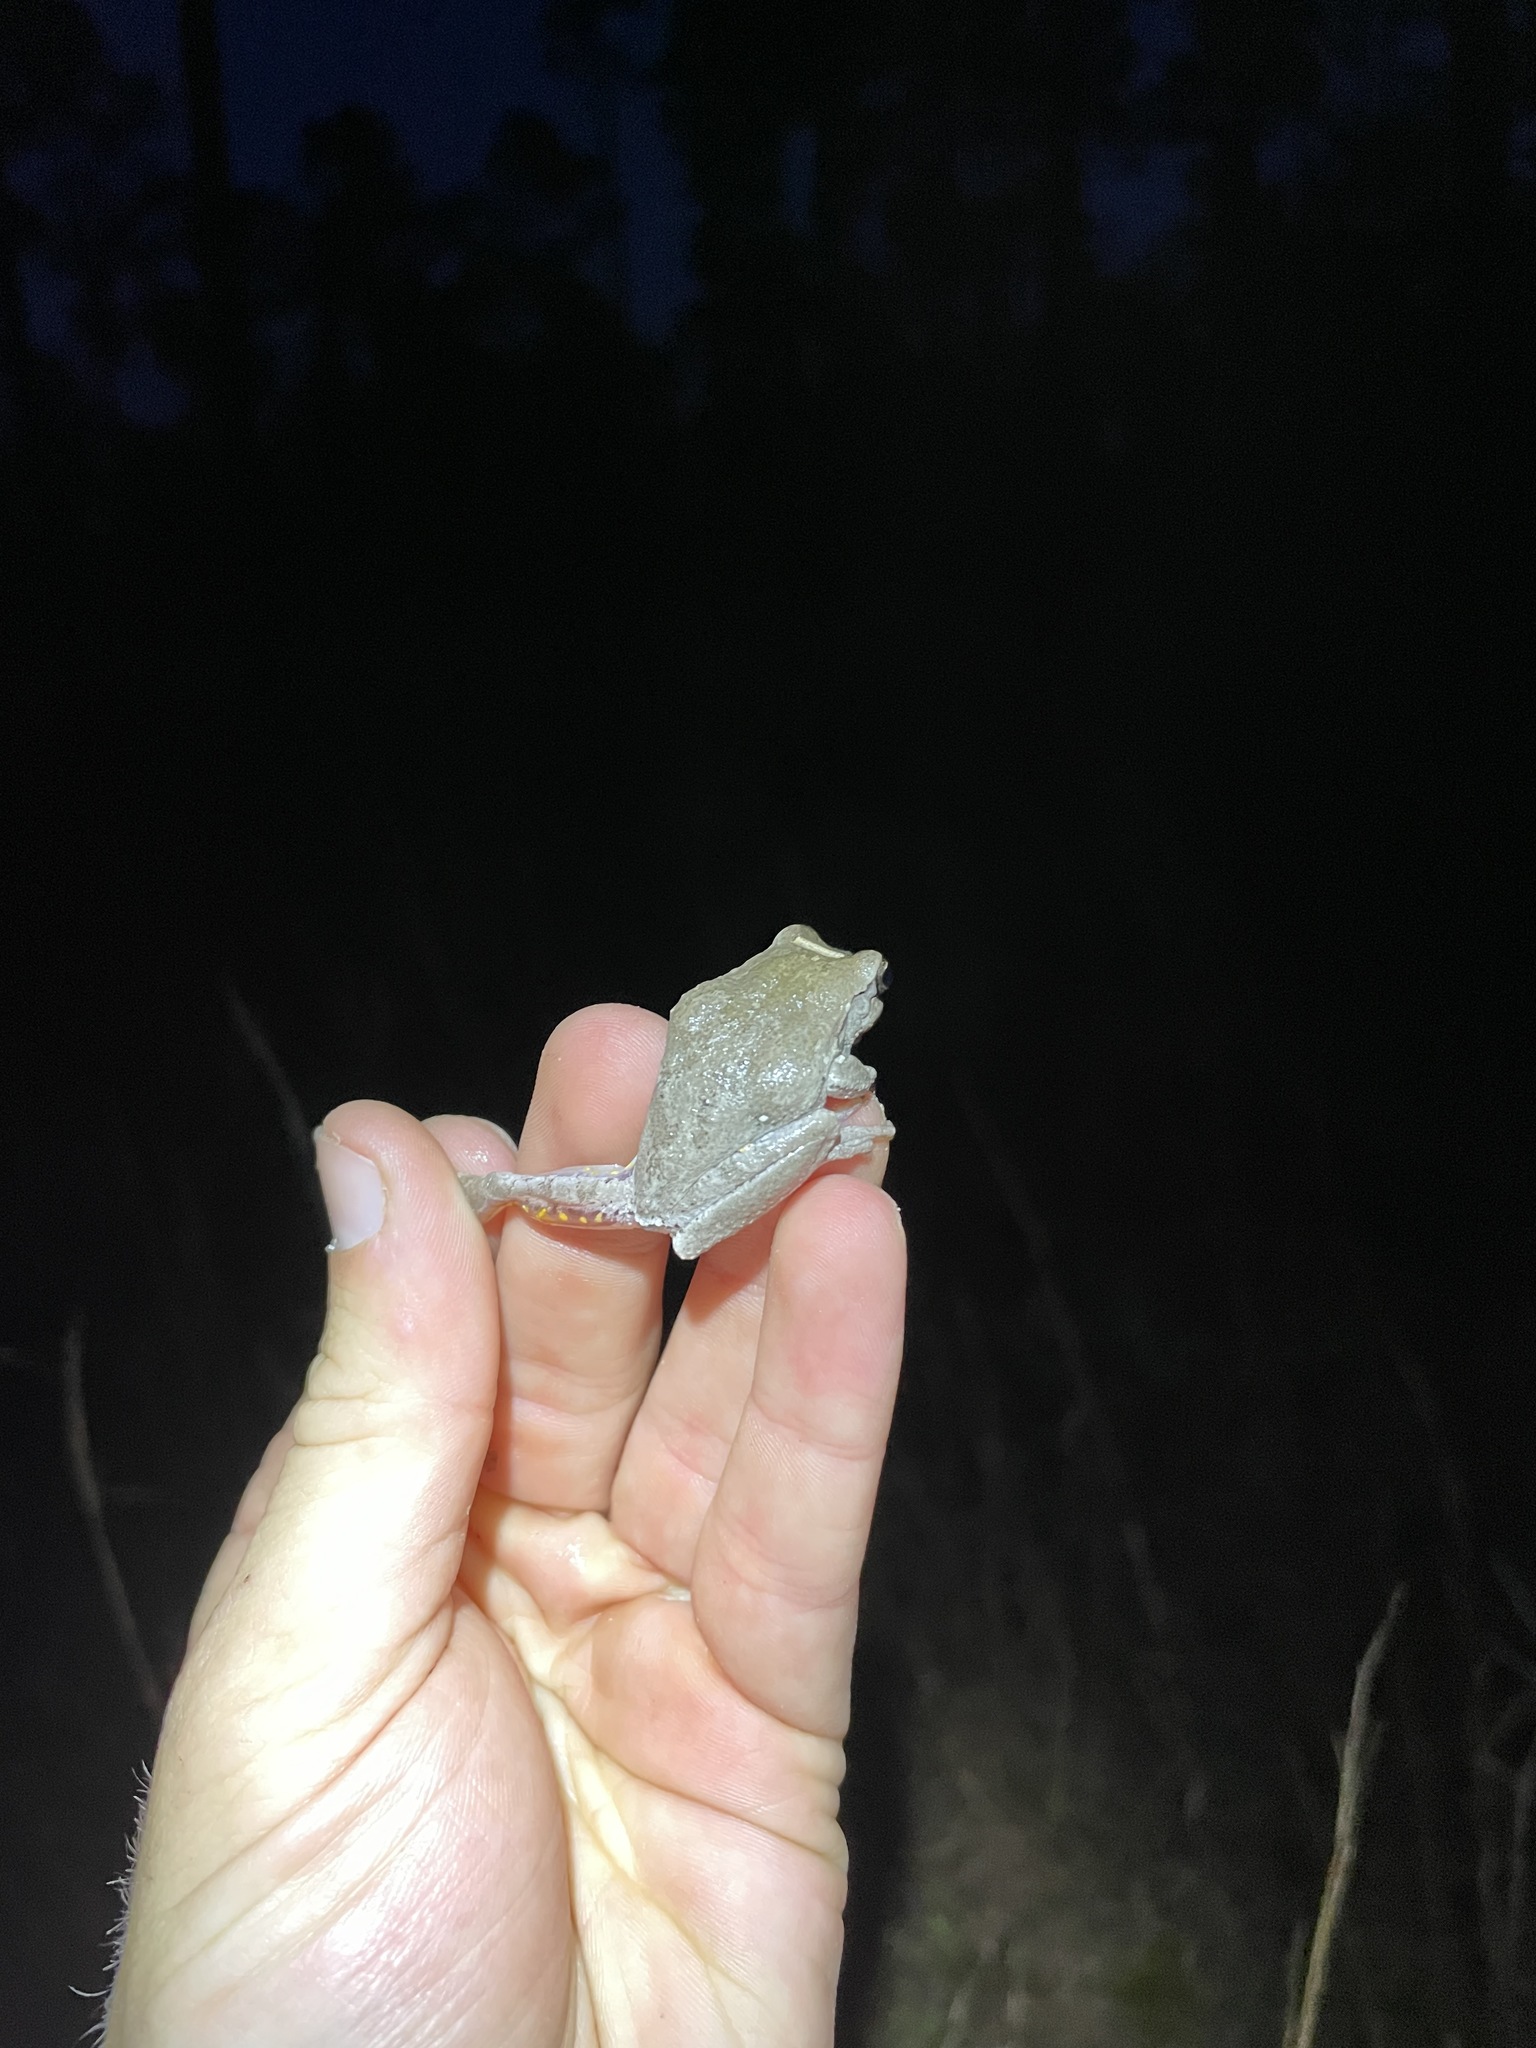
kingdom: Animalia
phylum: Chordata
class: Amphibia
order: Anura
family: Hylidae
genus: Hyla
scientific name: Hyla femoralis
